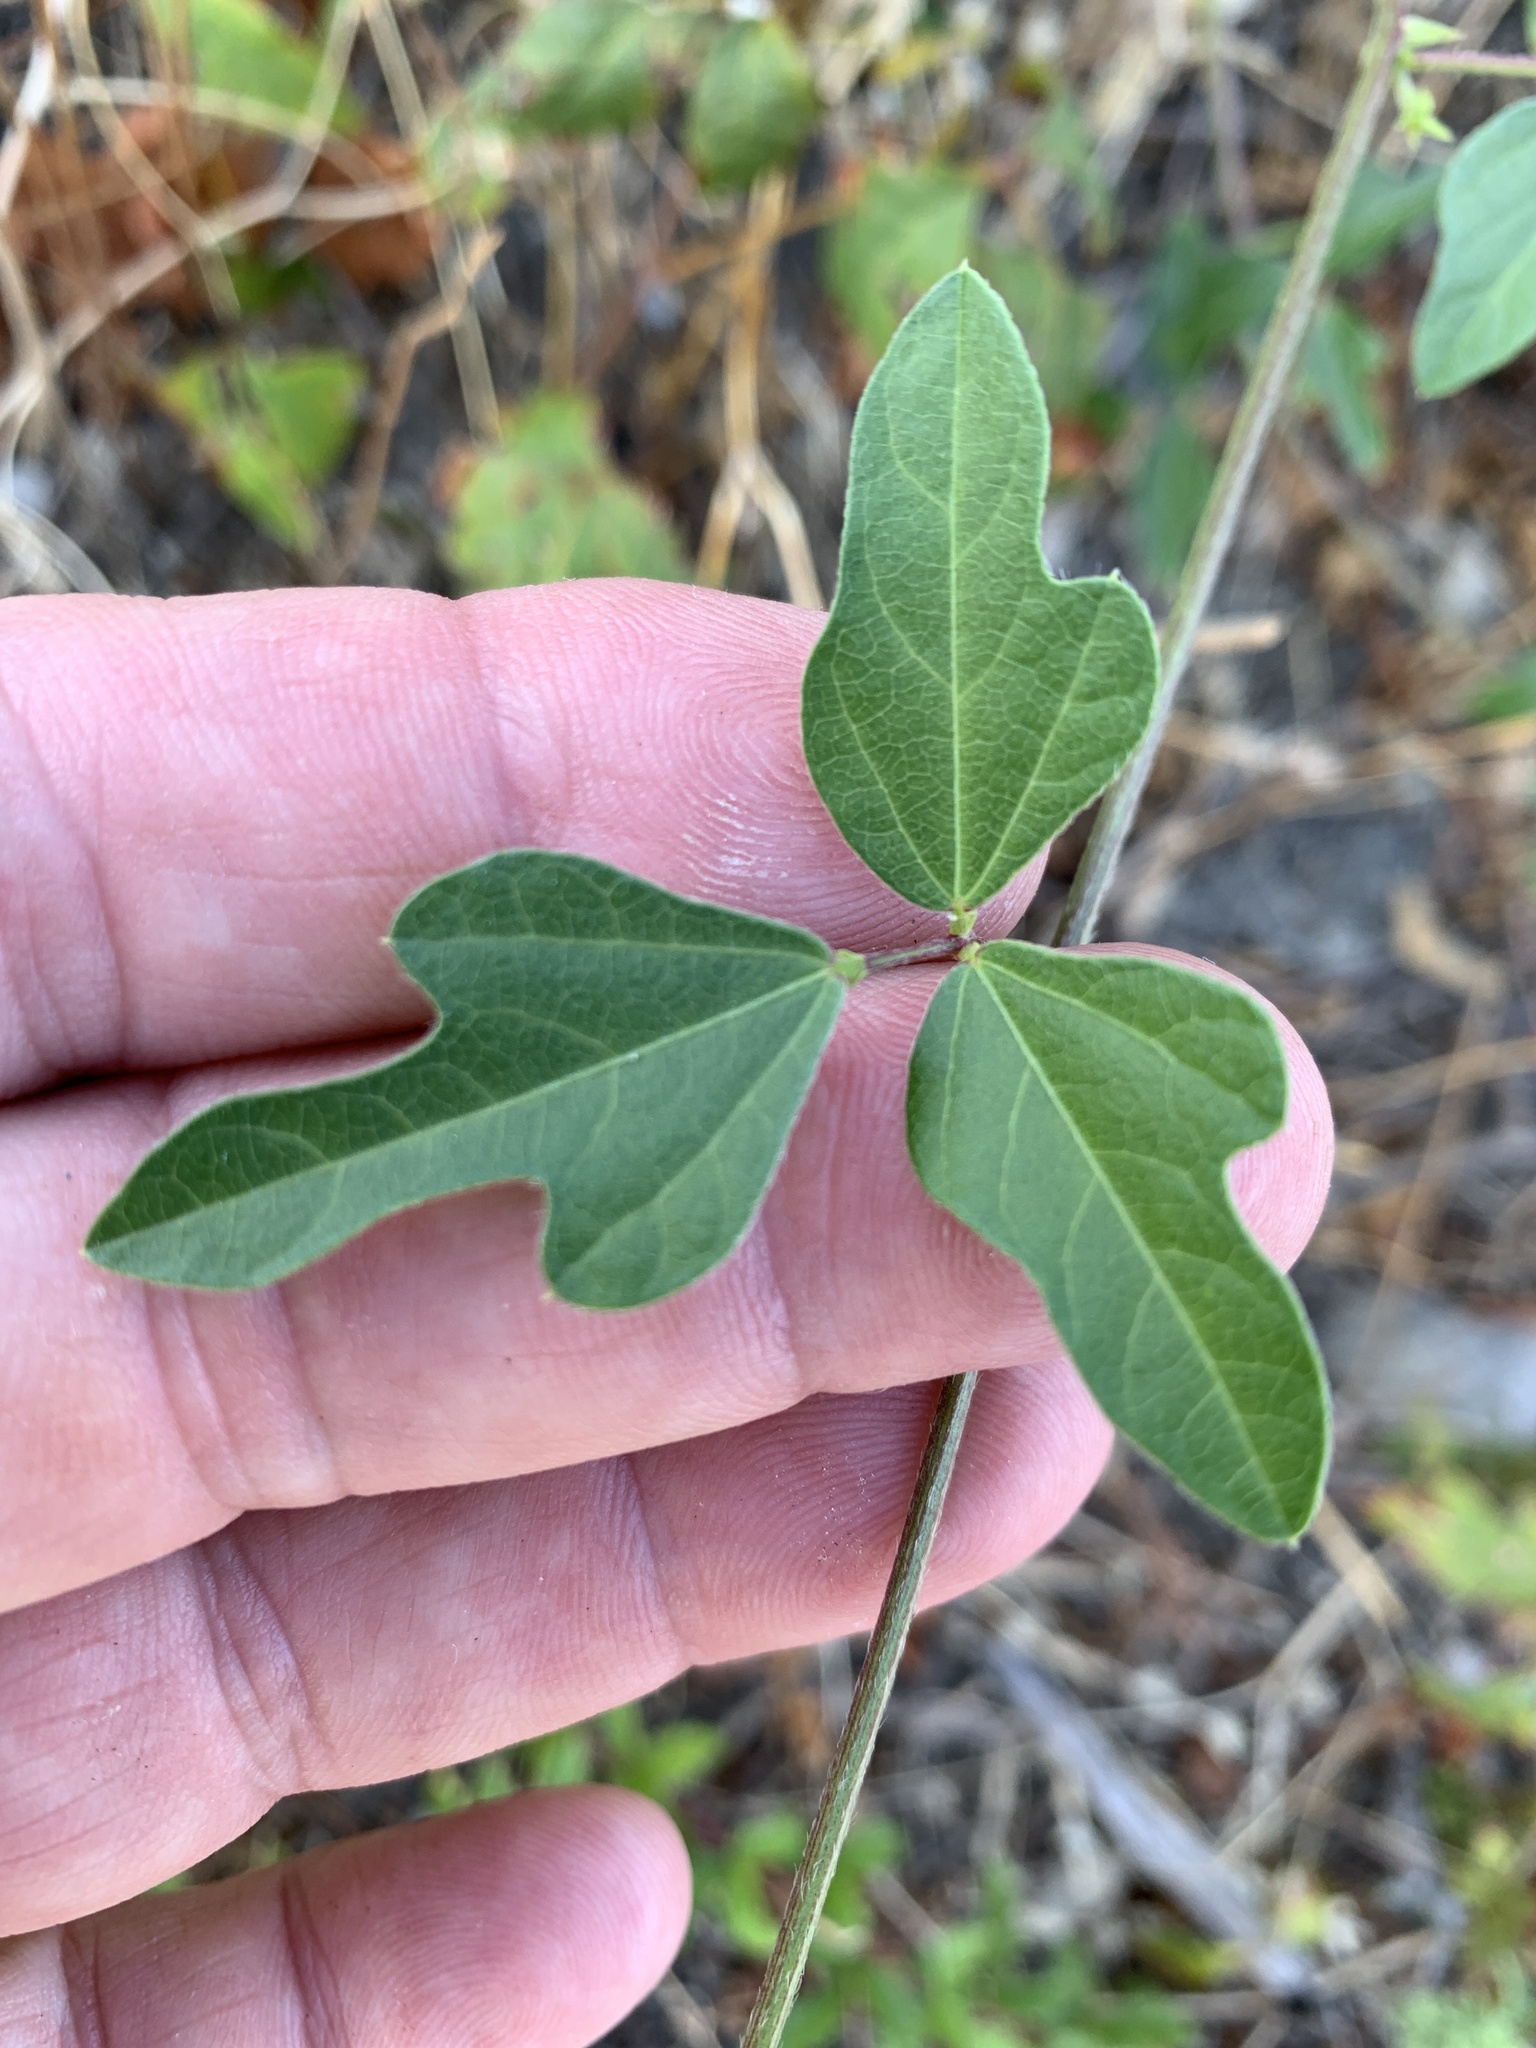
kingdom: Plantae
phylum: Tracheophyta
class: Magnoliopsida
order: Fabales
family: Fabaceae
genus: Strophostyles
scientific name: Strophostyles helvola
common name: Trailing wild bean
